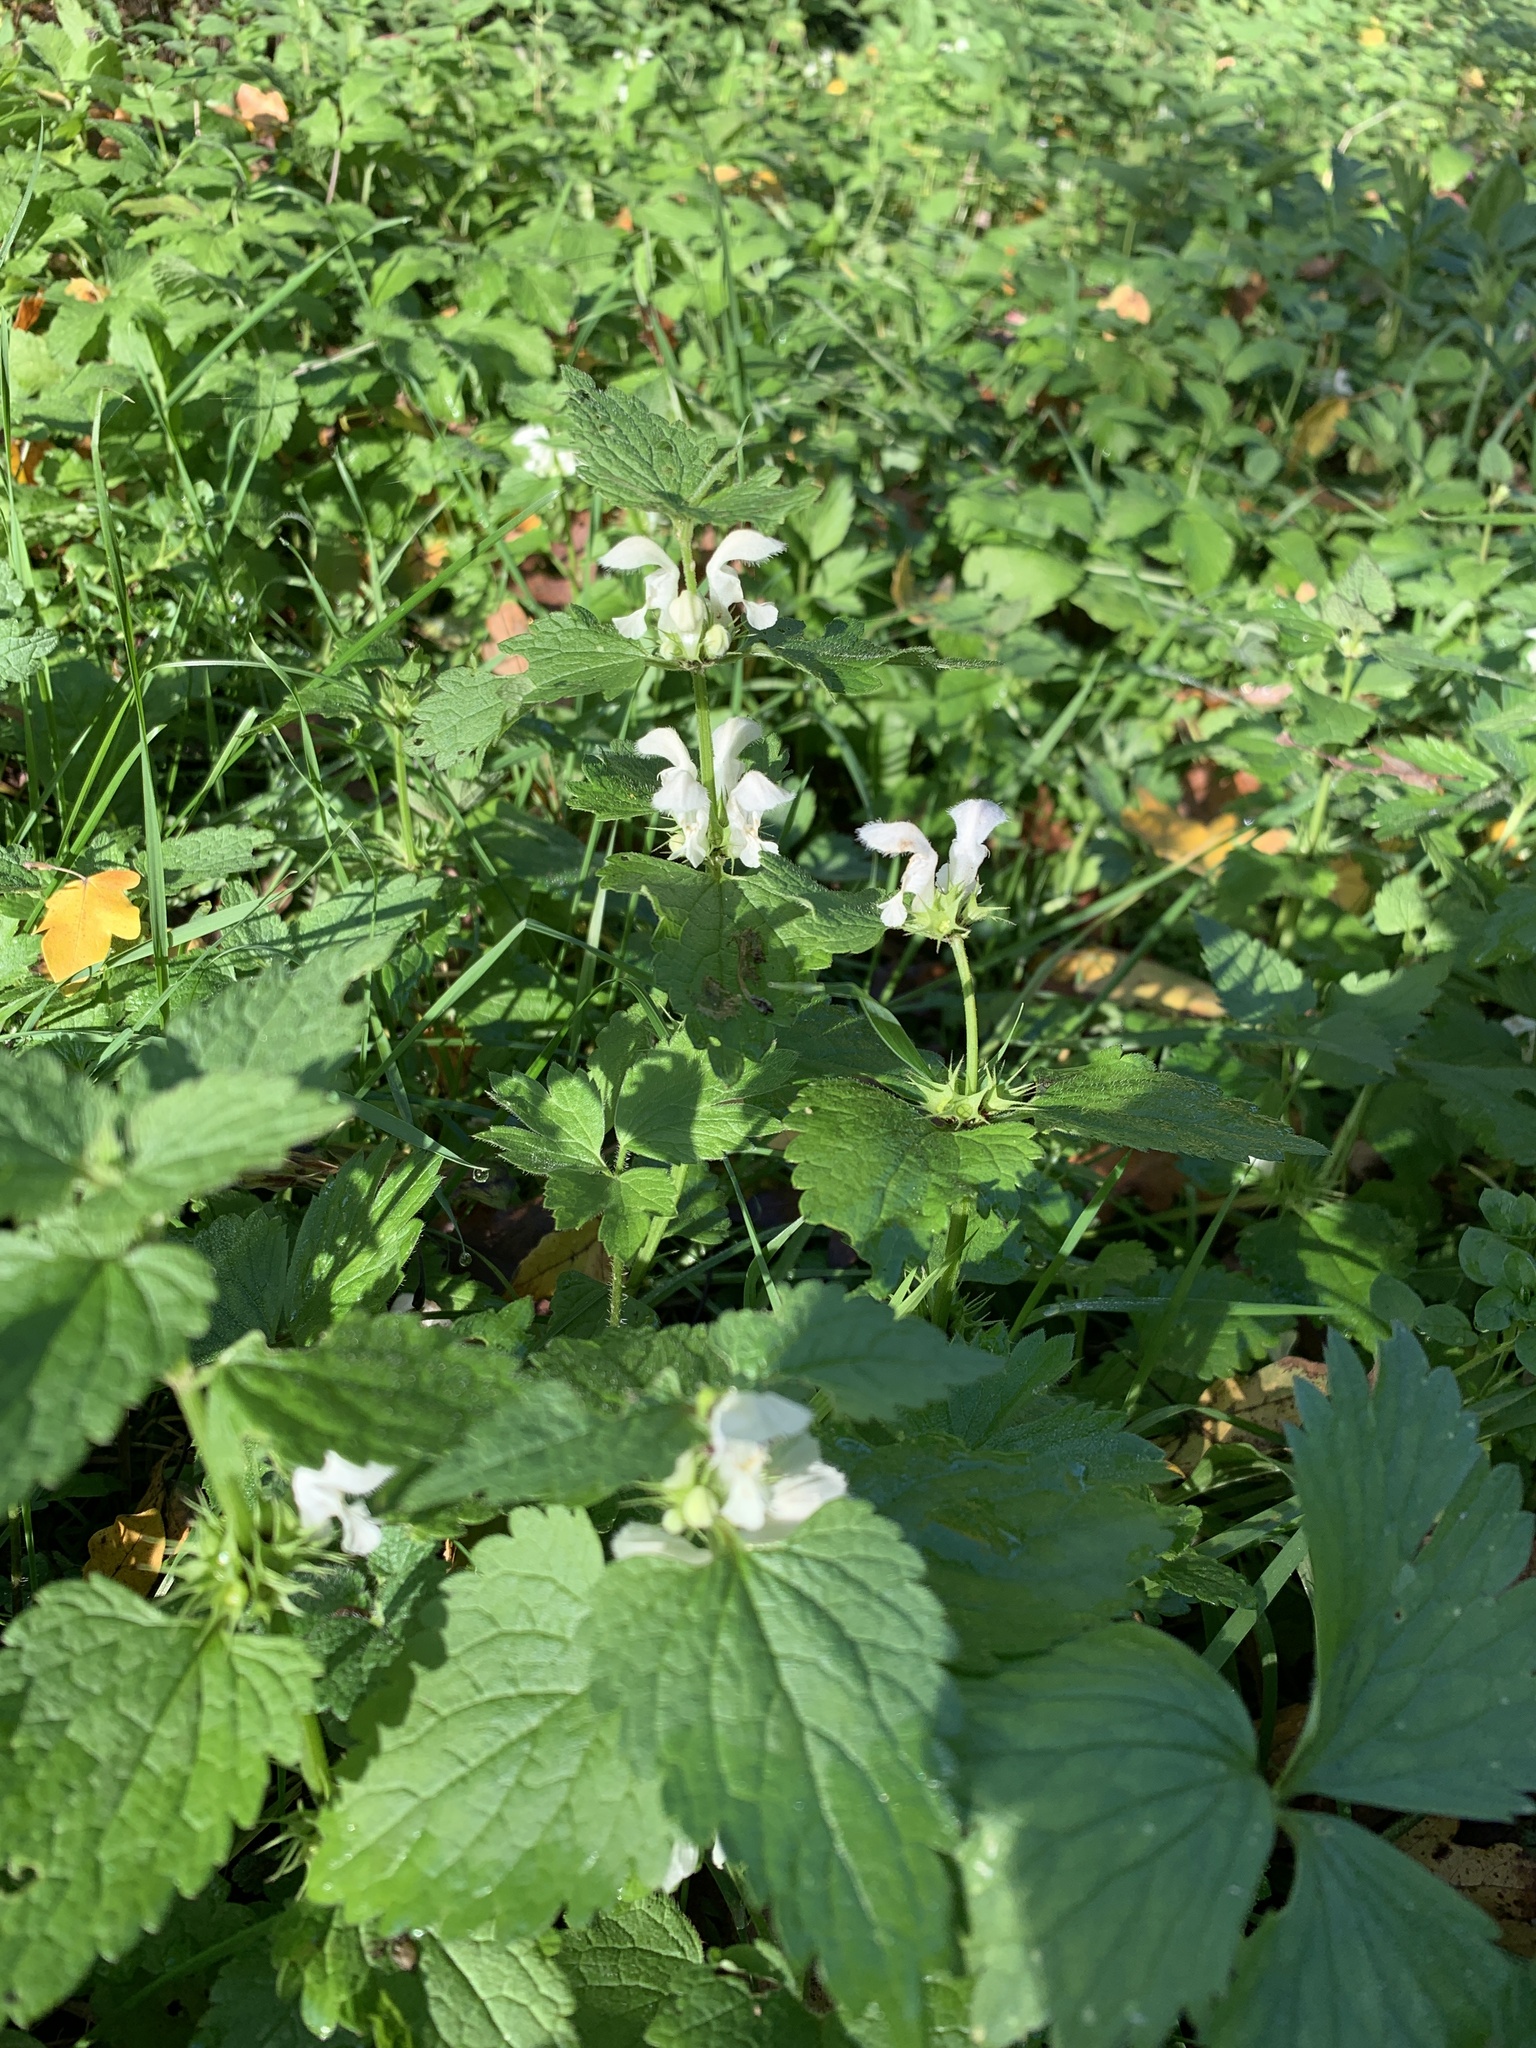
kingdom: Plantae
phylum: Tracheophyta
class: Magnoliopsida
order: Lamiales
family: Lamiaceae
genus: Lamium
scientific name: Lamium album
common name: White dead-nettle
